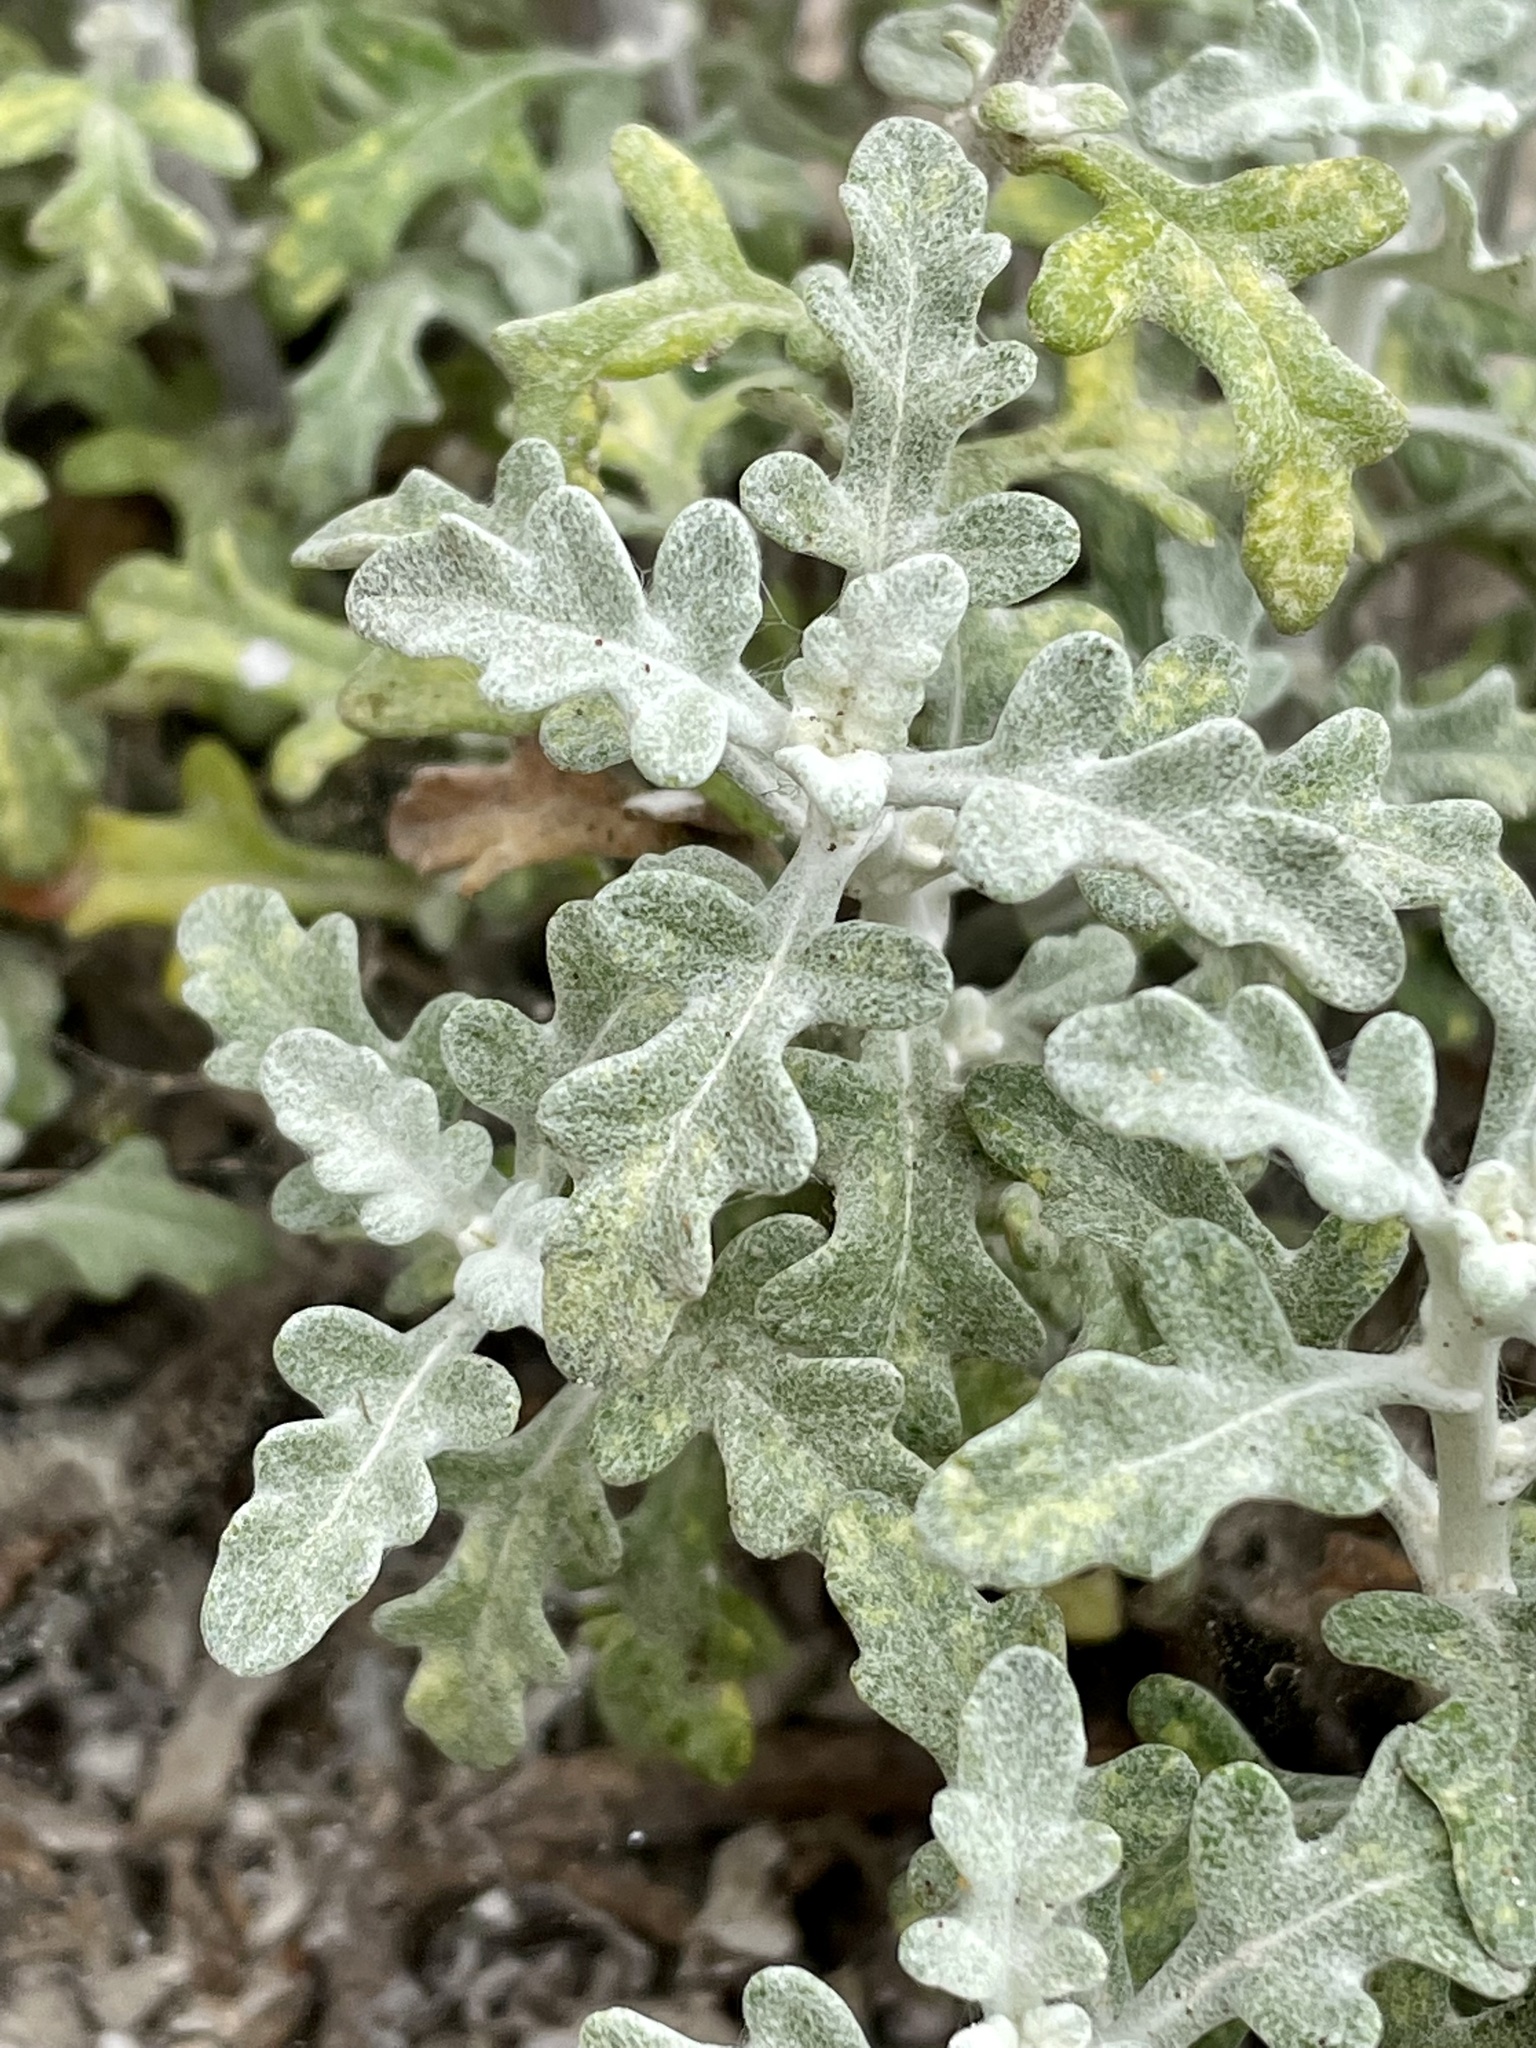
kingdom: Plantae
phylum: Tracheophyta
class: Magnoliopsida
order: Asterales
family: Asteraceae
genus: Eriophyllum
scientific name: Eriophyllum staechadifolium
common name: Lizardtail
